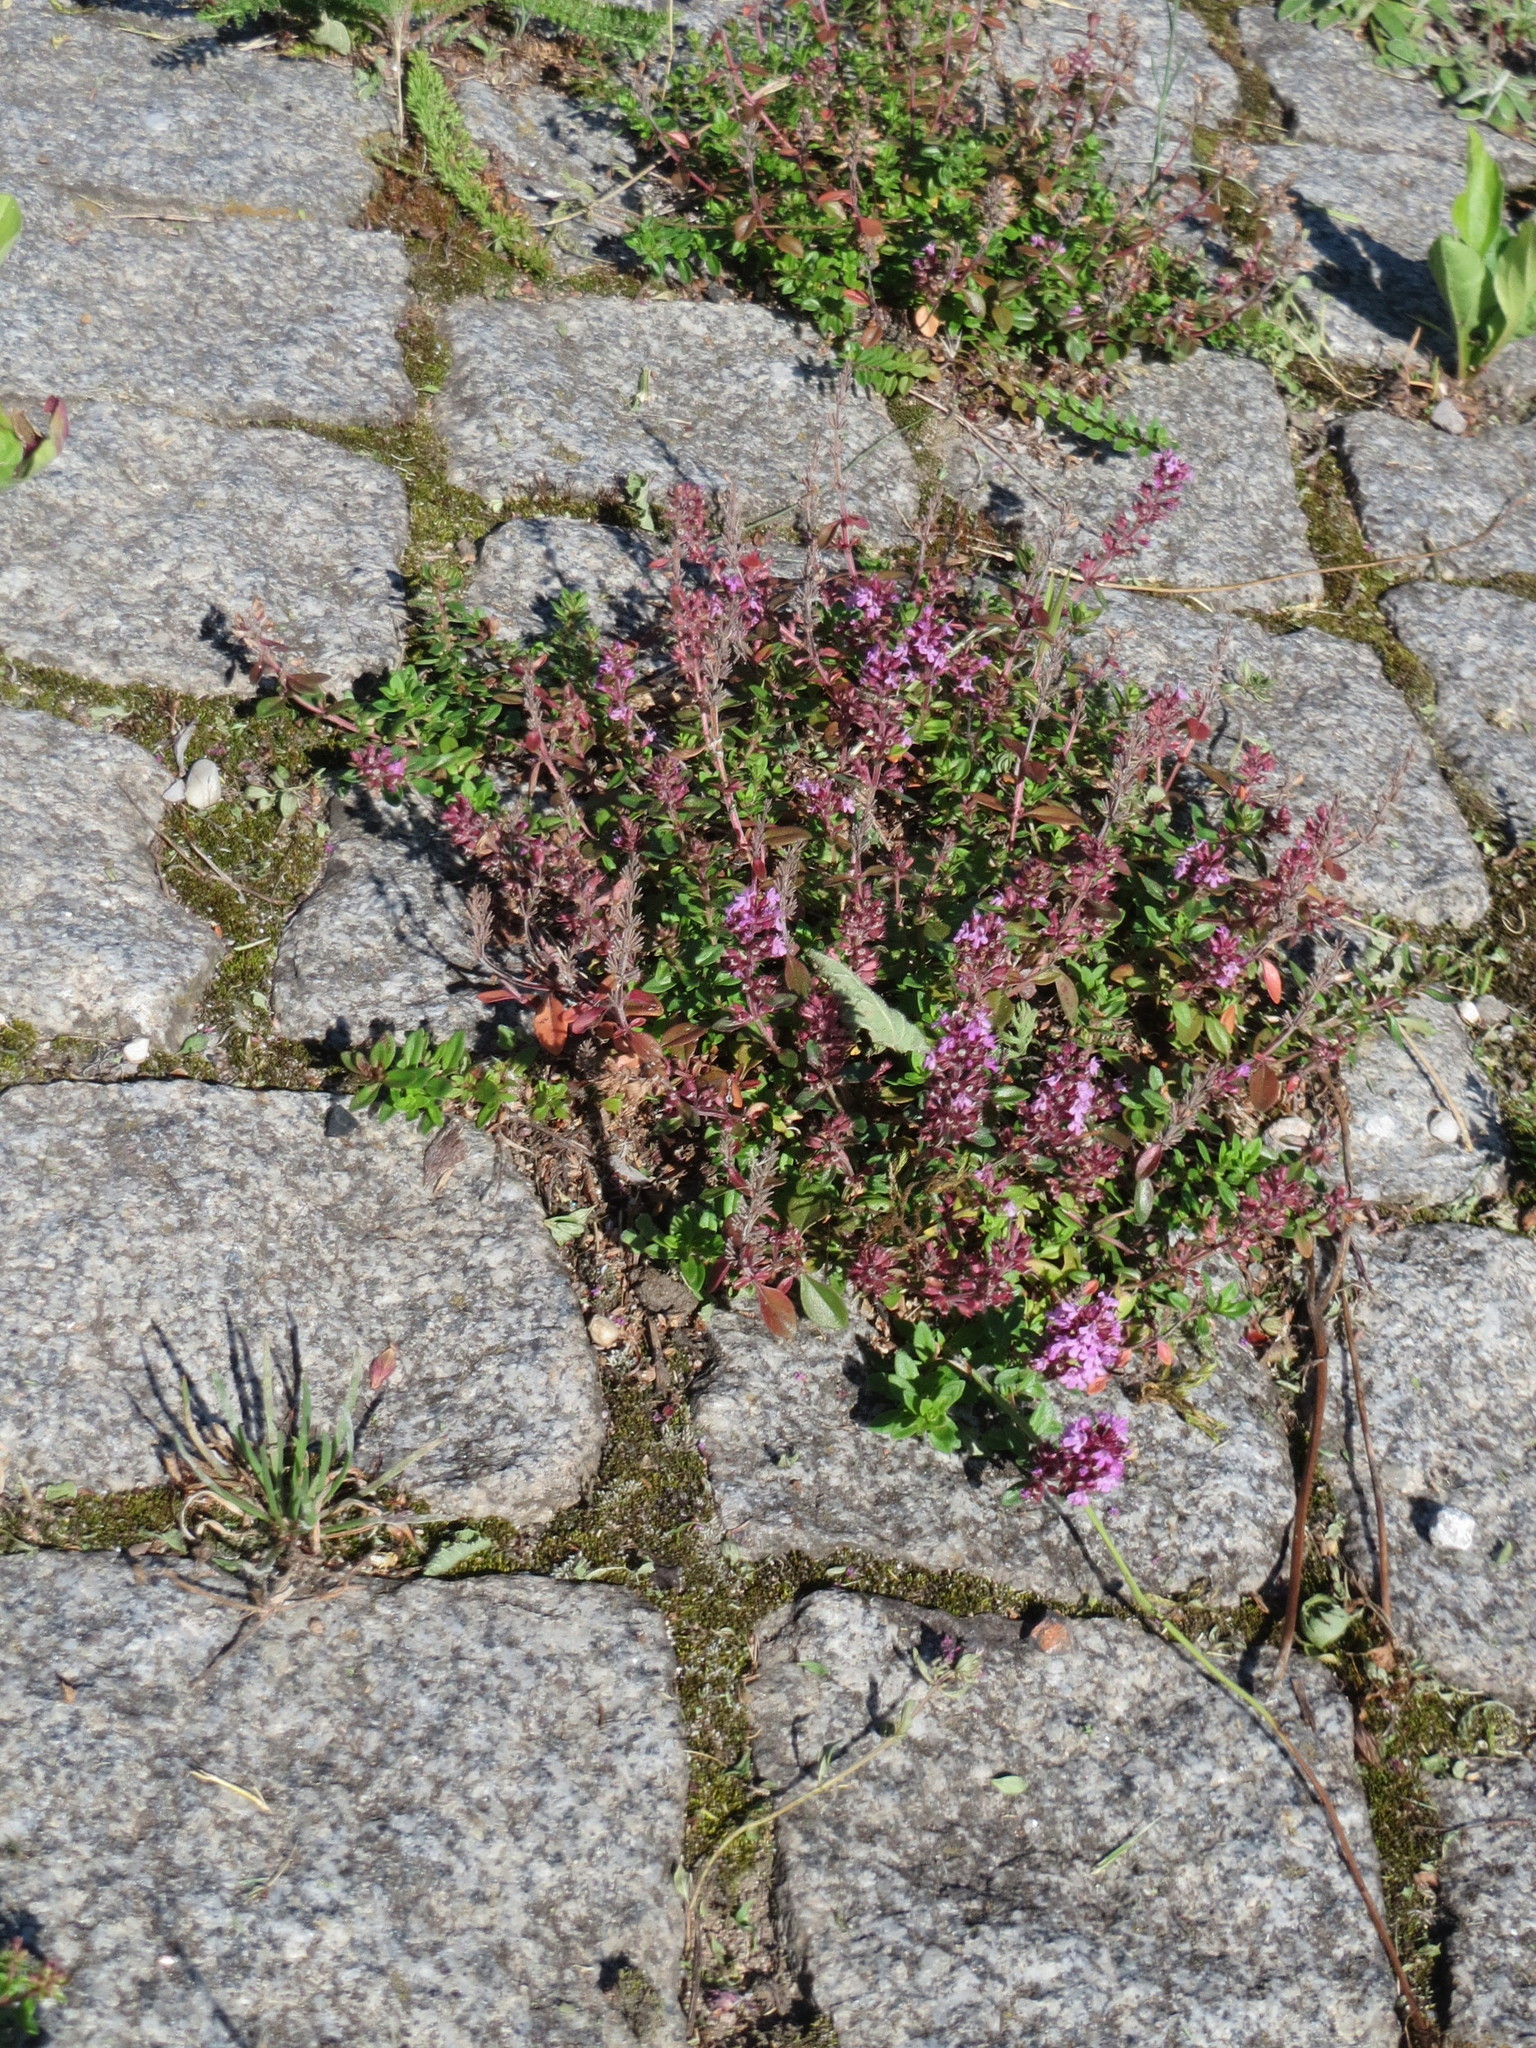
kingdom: Plantae
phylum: Tracheophyta
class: Magnoliopsida
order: Lamiales
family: Lamiaceae
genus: Thymus
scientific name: Thymus pulegioides
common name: Large thyme
